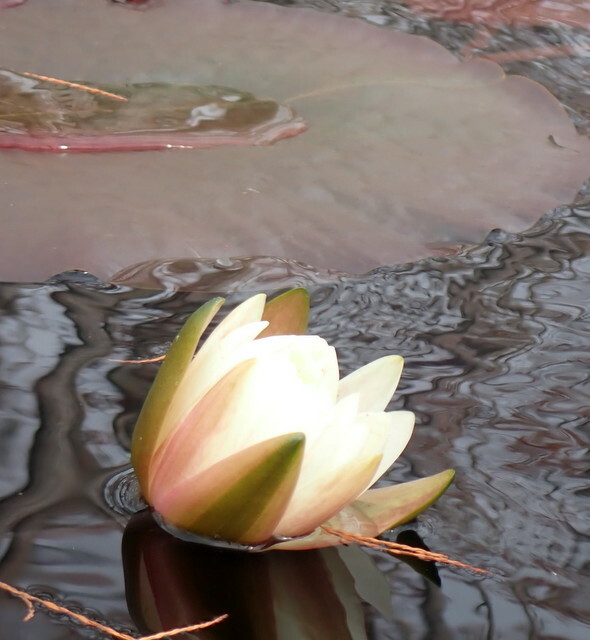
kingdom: Plantae
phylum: Tracheophyta
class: Magnoliopsida
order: Nymphaeales
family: Nymphaeaceae
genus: Nymphaea
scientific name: Nymphaea odorata
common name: Fragrant water-lily
